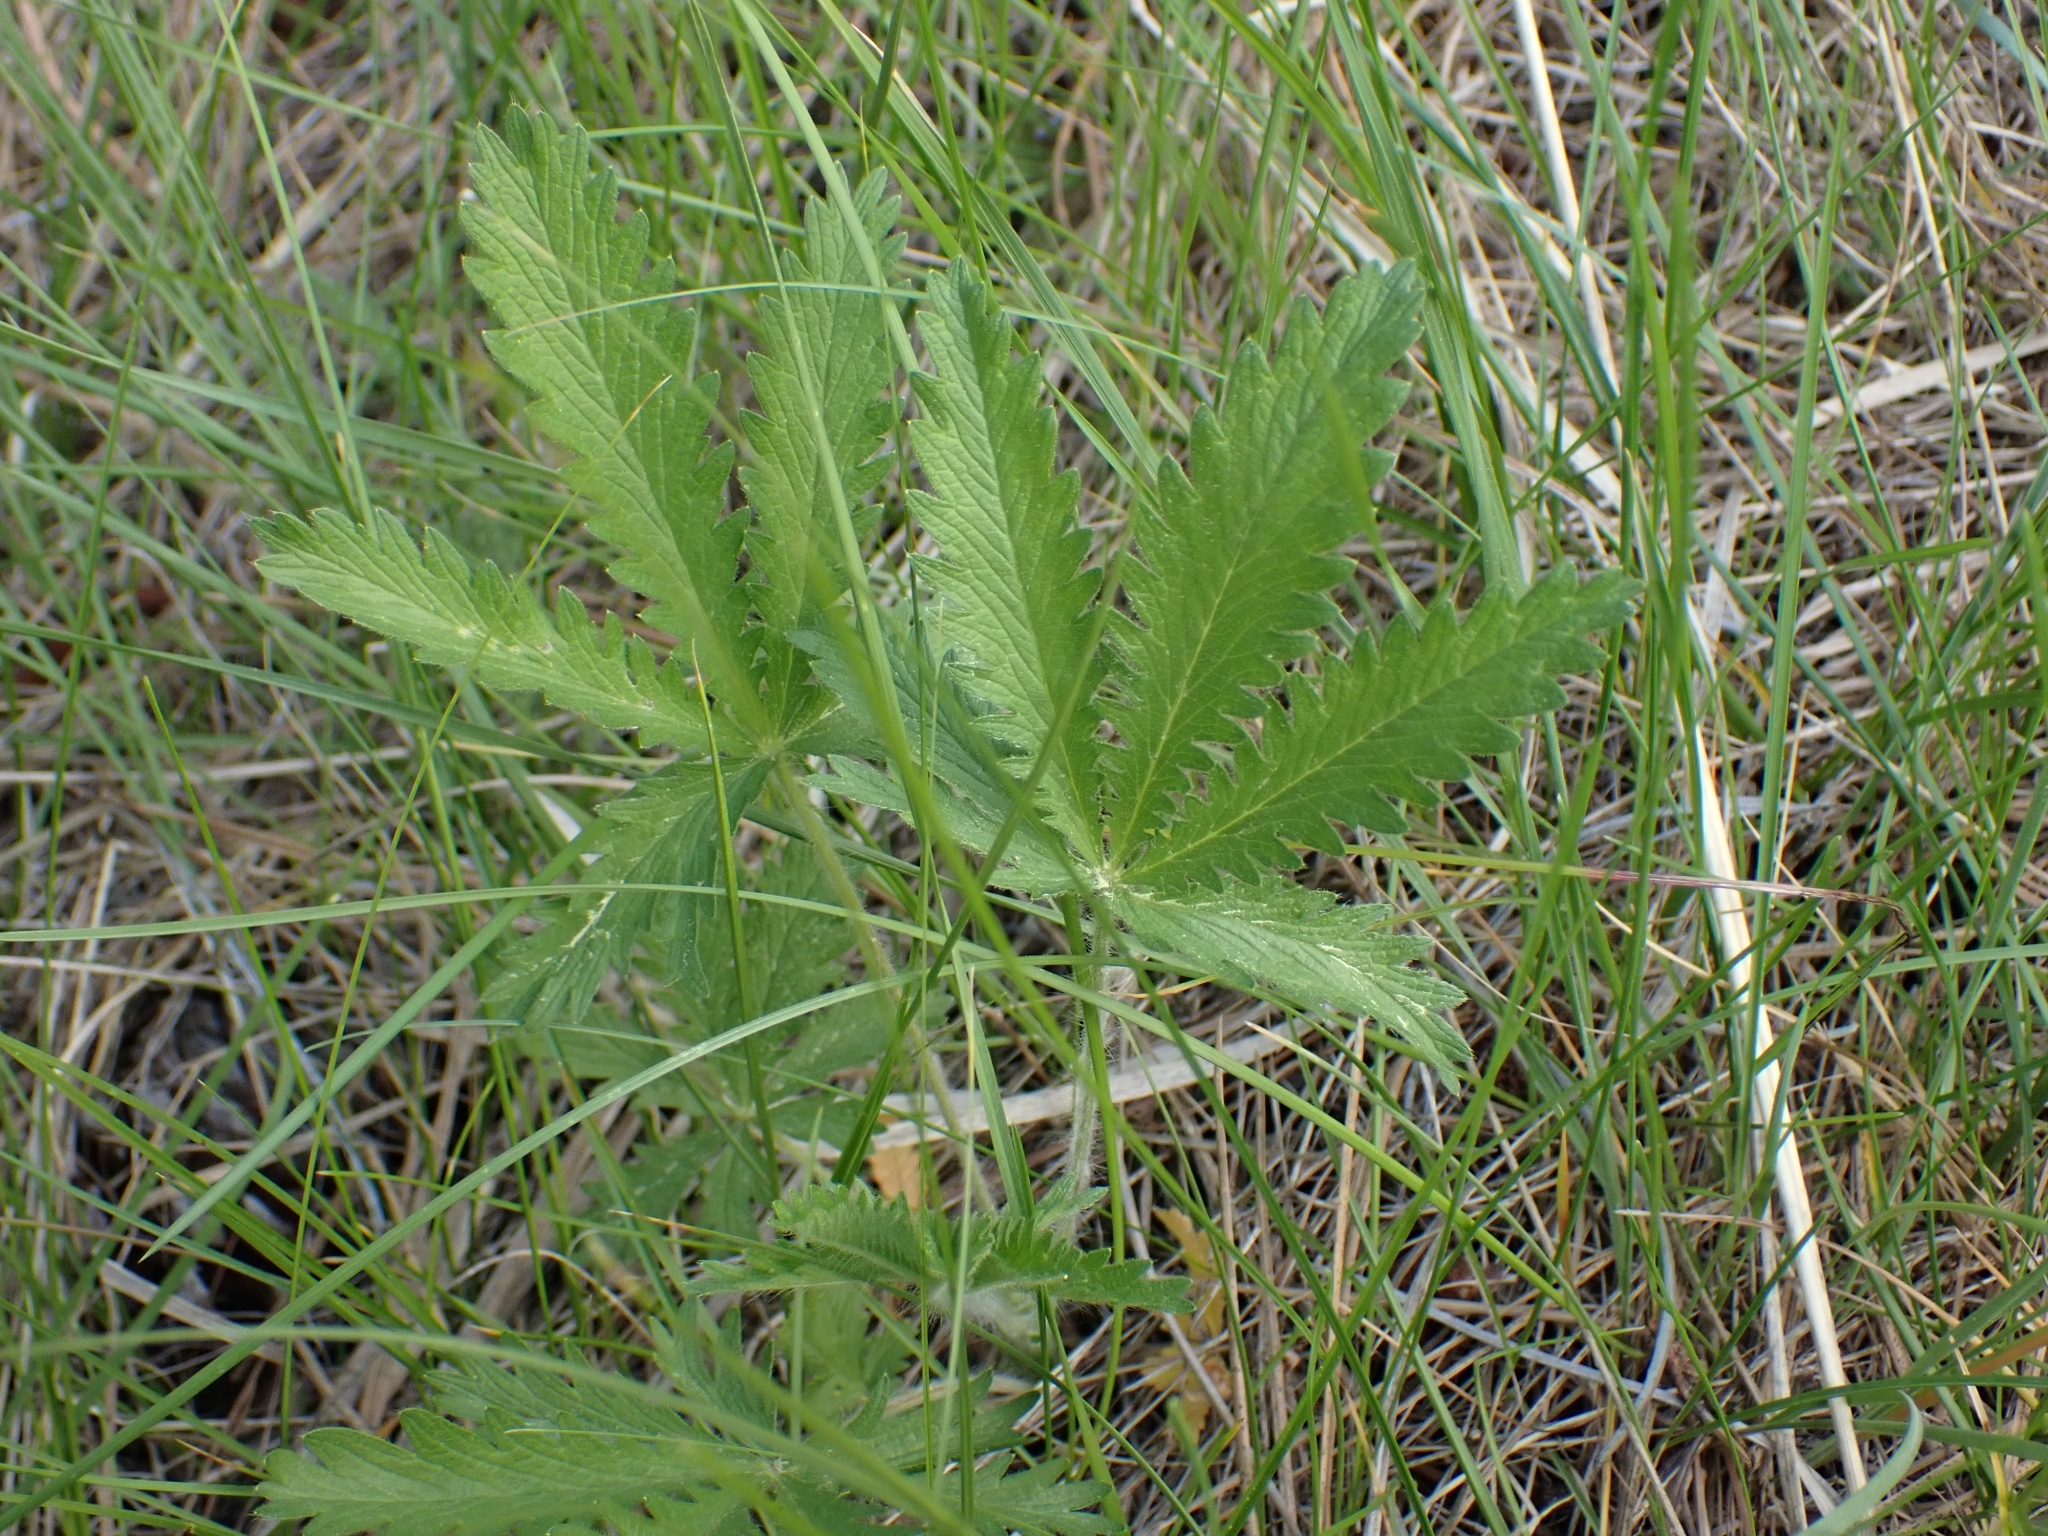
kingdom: Plantae
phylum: Tracheophyta
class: Magnoliopsida
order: Rosales
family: Rosaceae
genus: Potentilla
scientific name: Potentilla recta
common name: Sulphur cinquefoil
